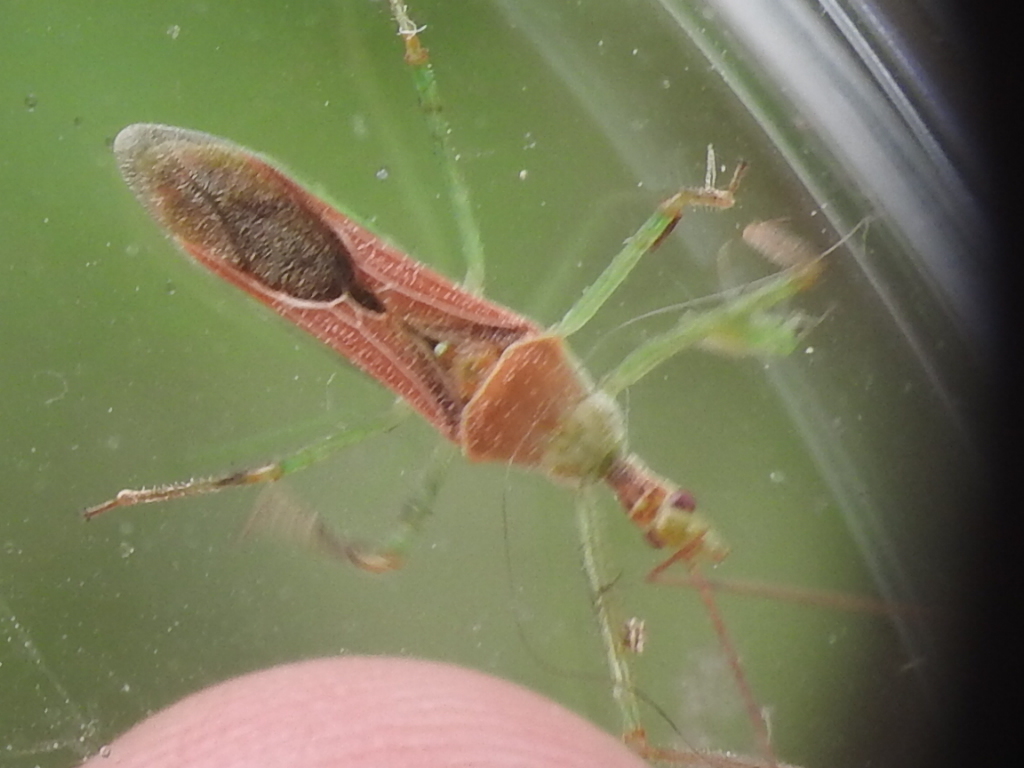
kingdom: Animalia
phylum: Arthropoda
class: Insecta
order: Hemiptera
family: Reduviidae
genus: Zelus
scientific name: Zelus renardii
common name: Assassin bug
